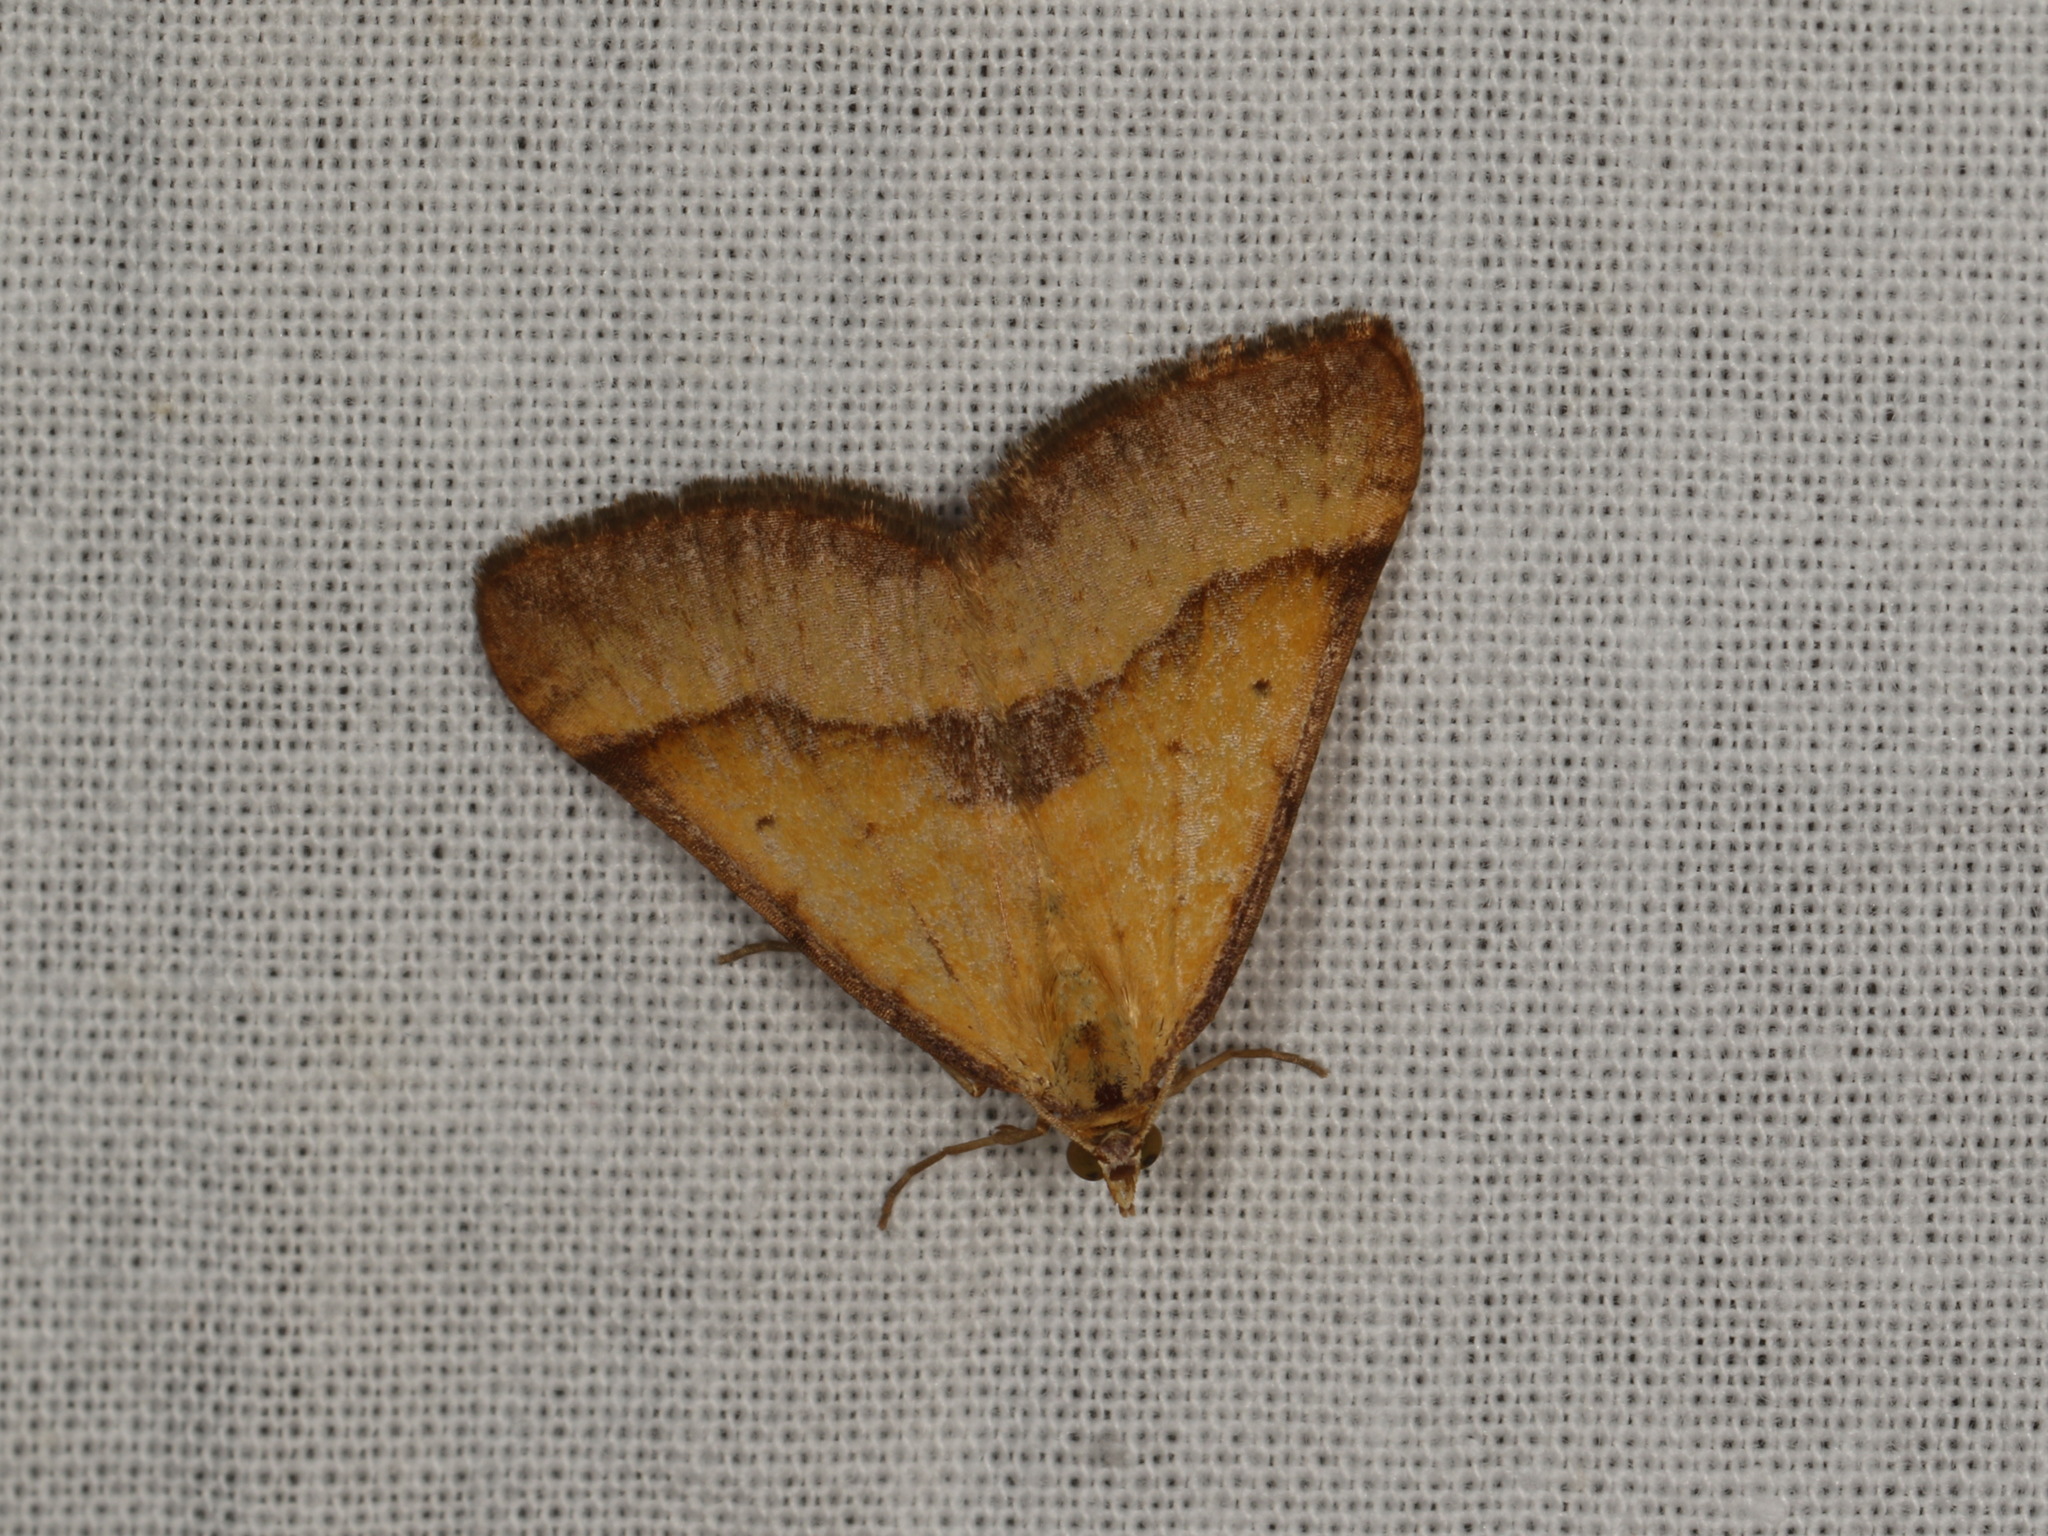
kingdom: Animalia
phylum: Arthropoda
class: Insecta
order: Lepidoptera
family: Geometridae
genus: Anachloris
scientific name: Anachloris subochraria
